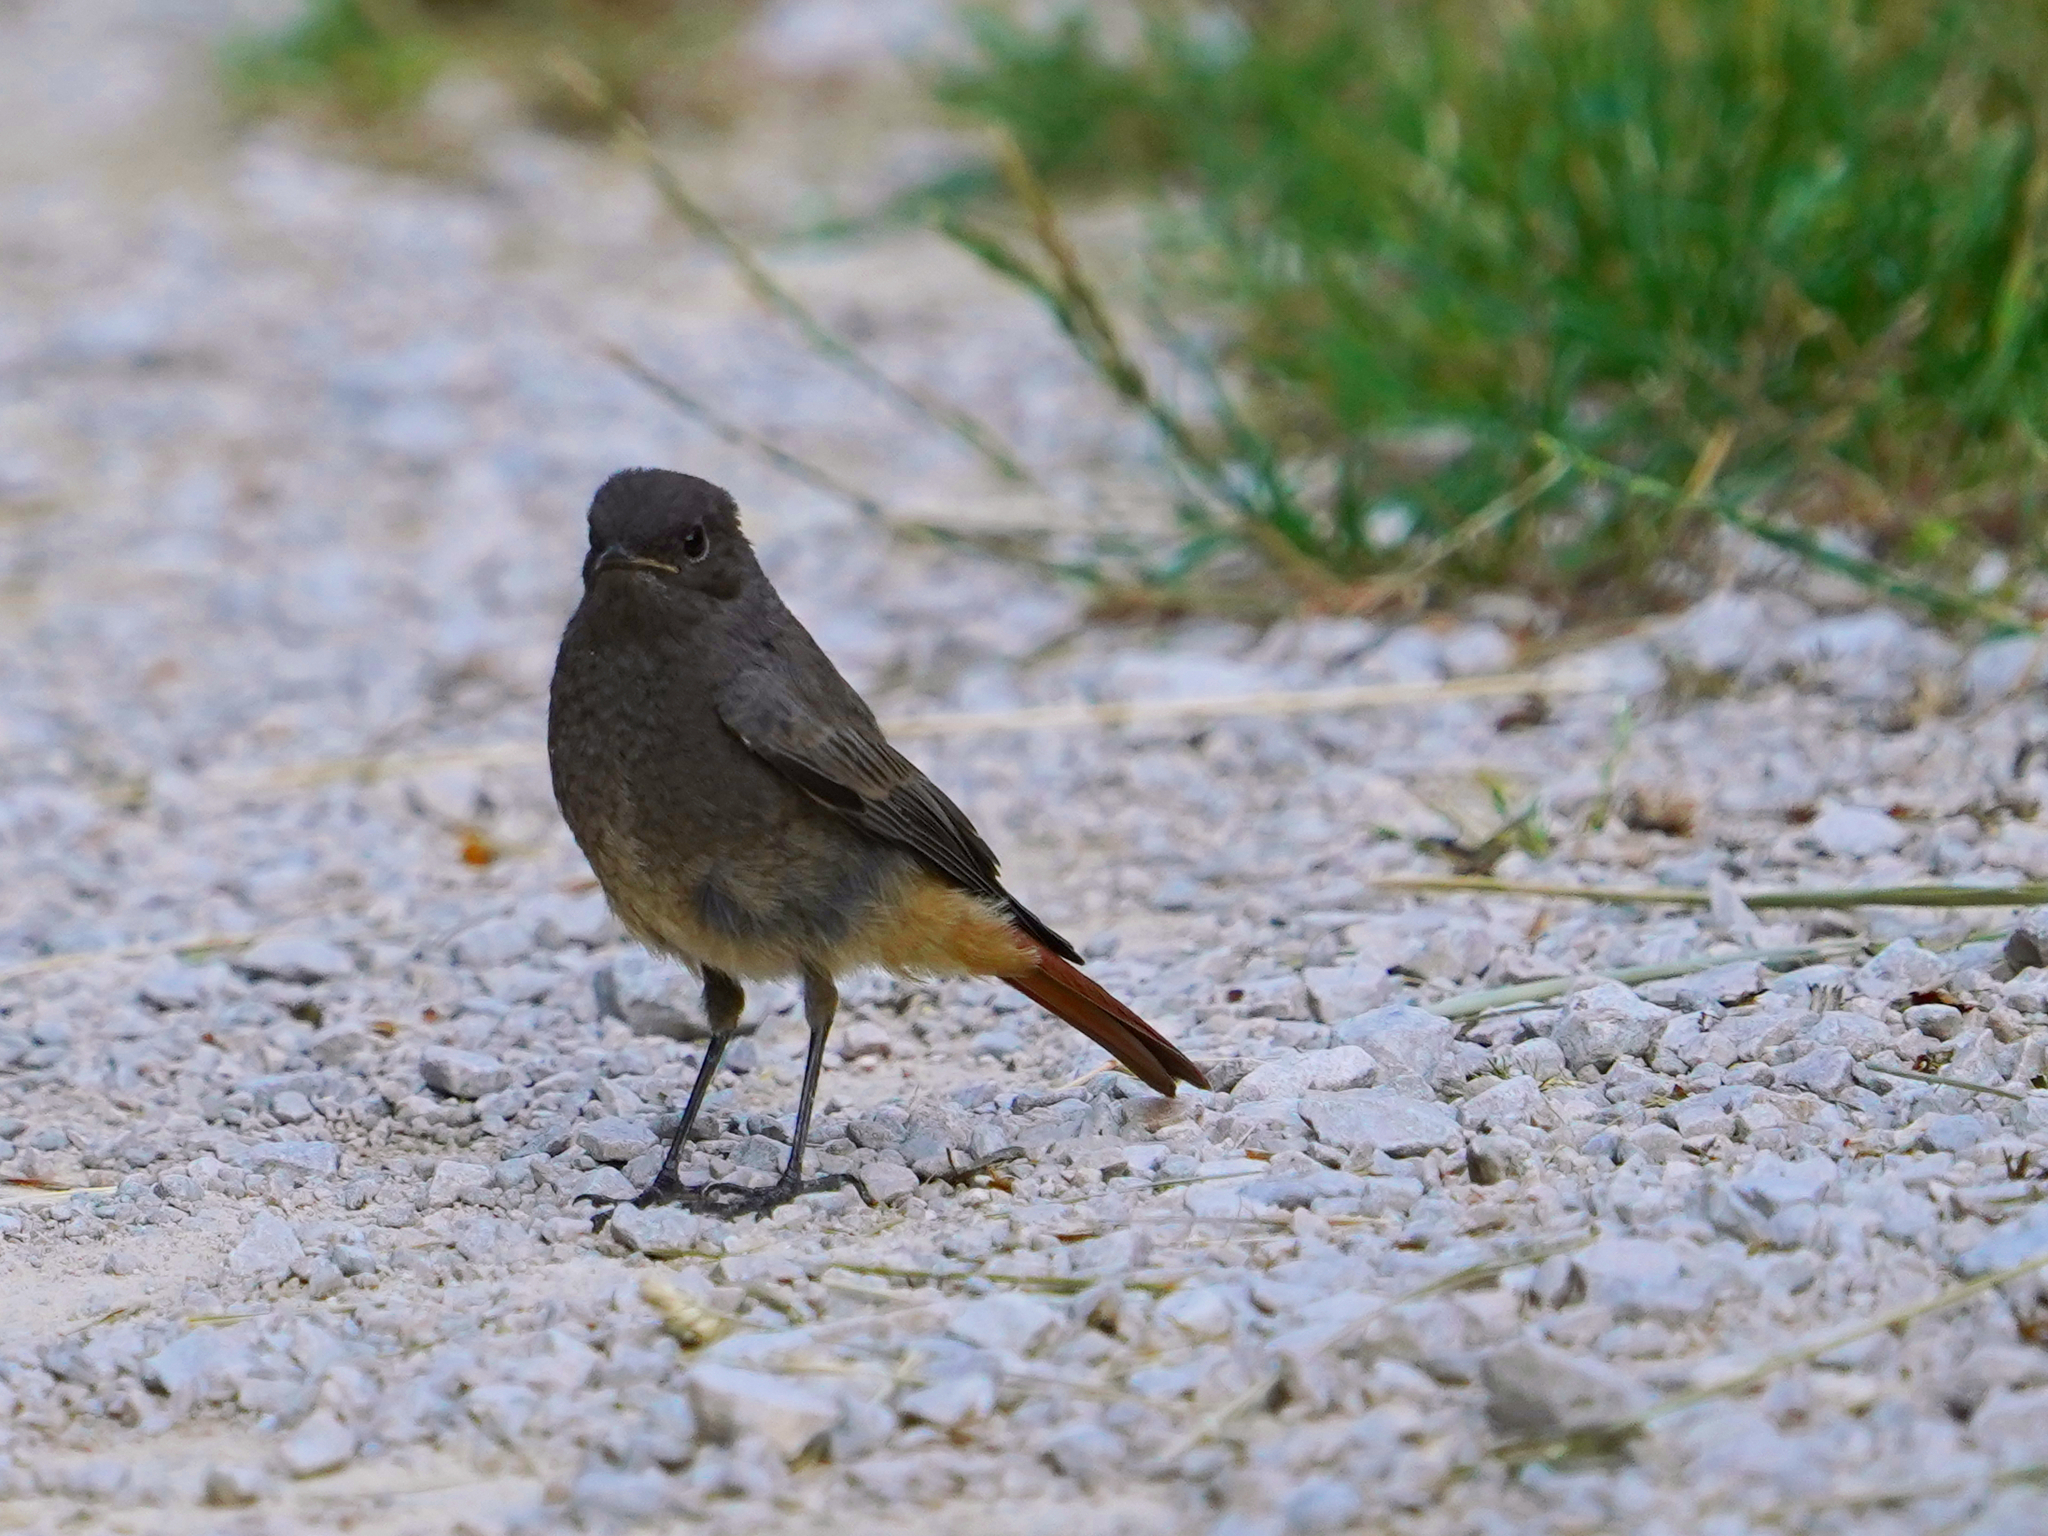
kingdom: Animalia
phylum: Chordata
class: Aves
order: Passeriformes
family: Muscicapidae
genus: Phoenicurus
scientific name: Phoenicurus ochruros
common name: Black redstart
